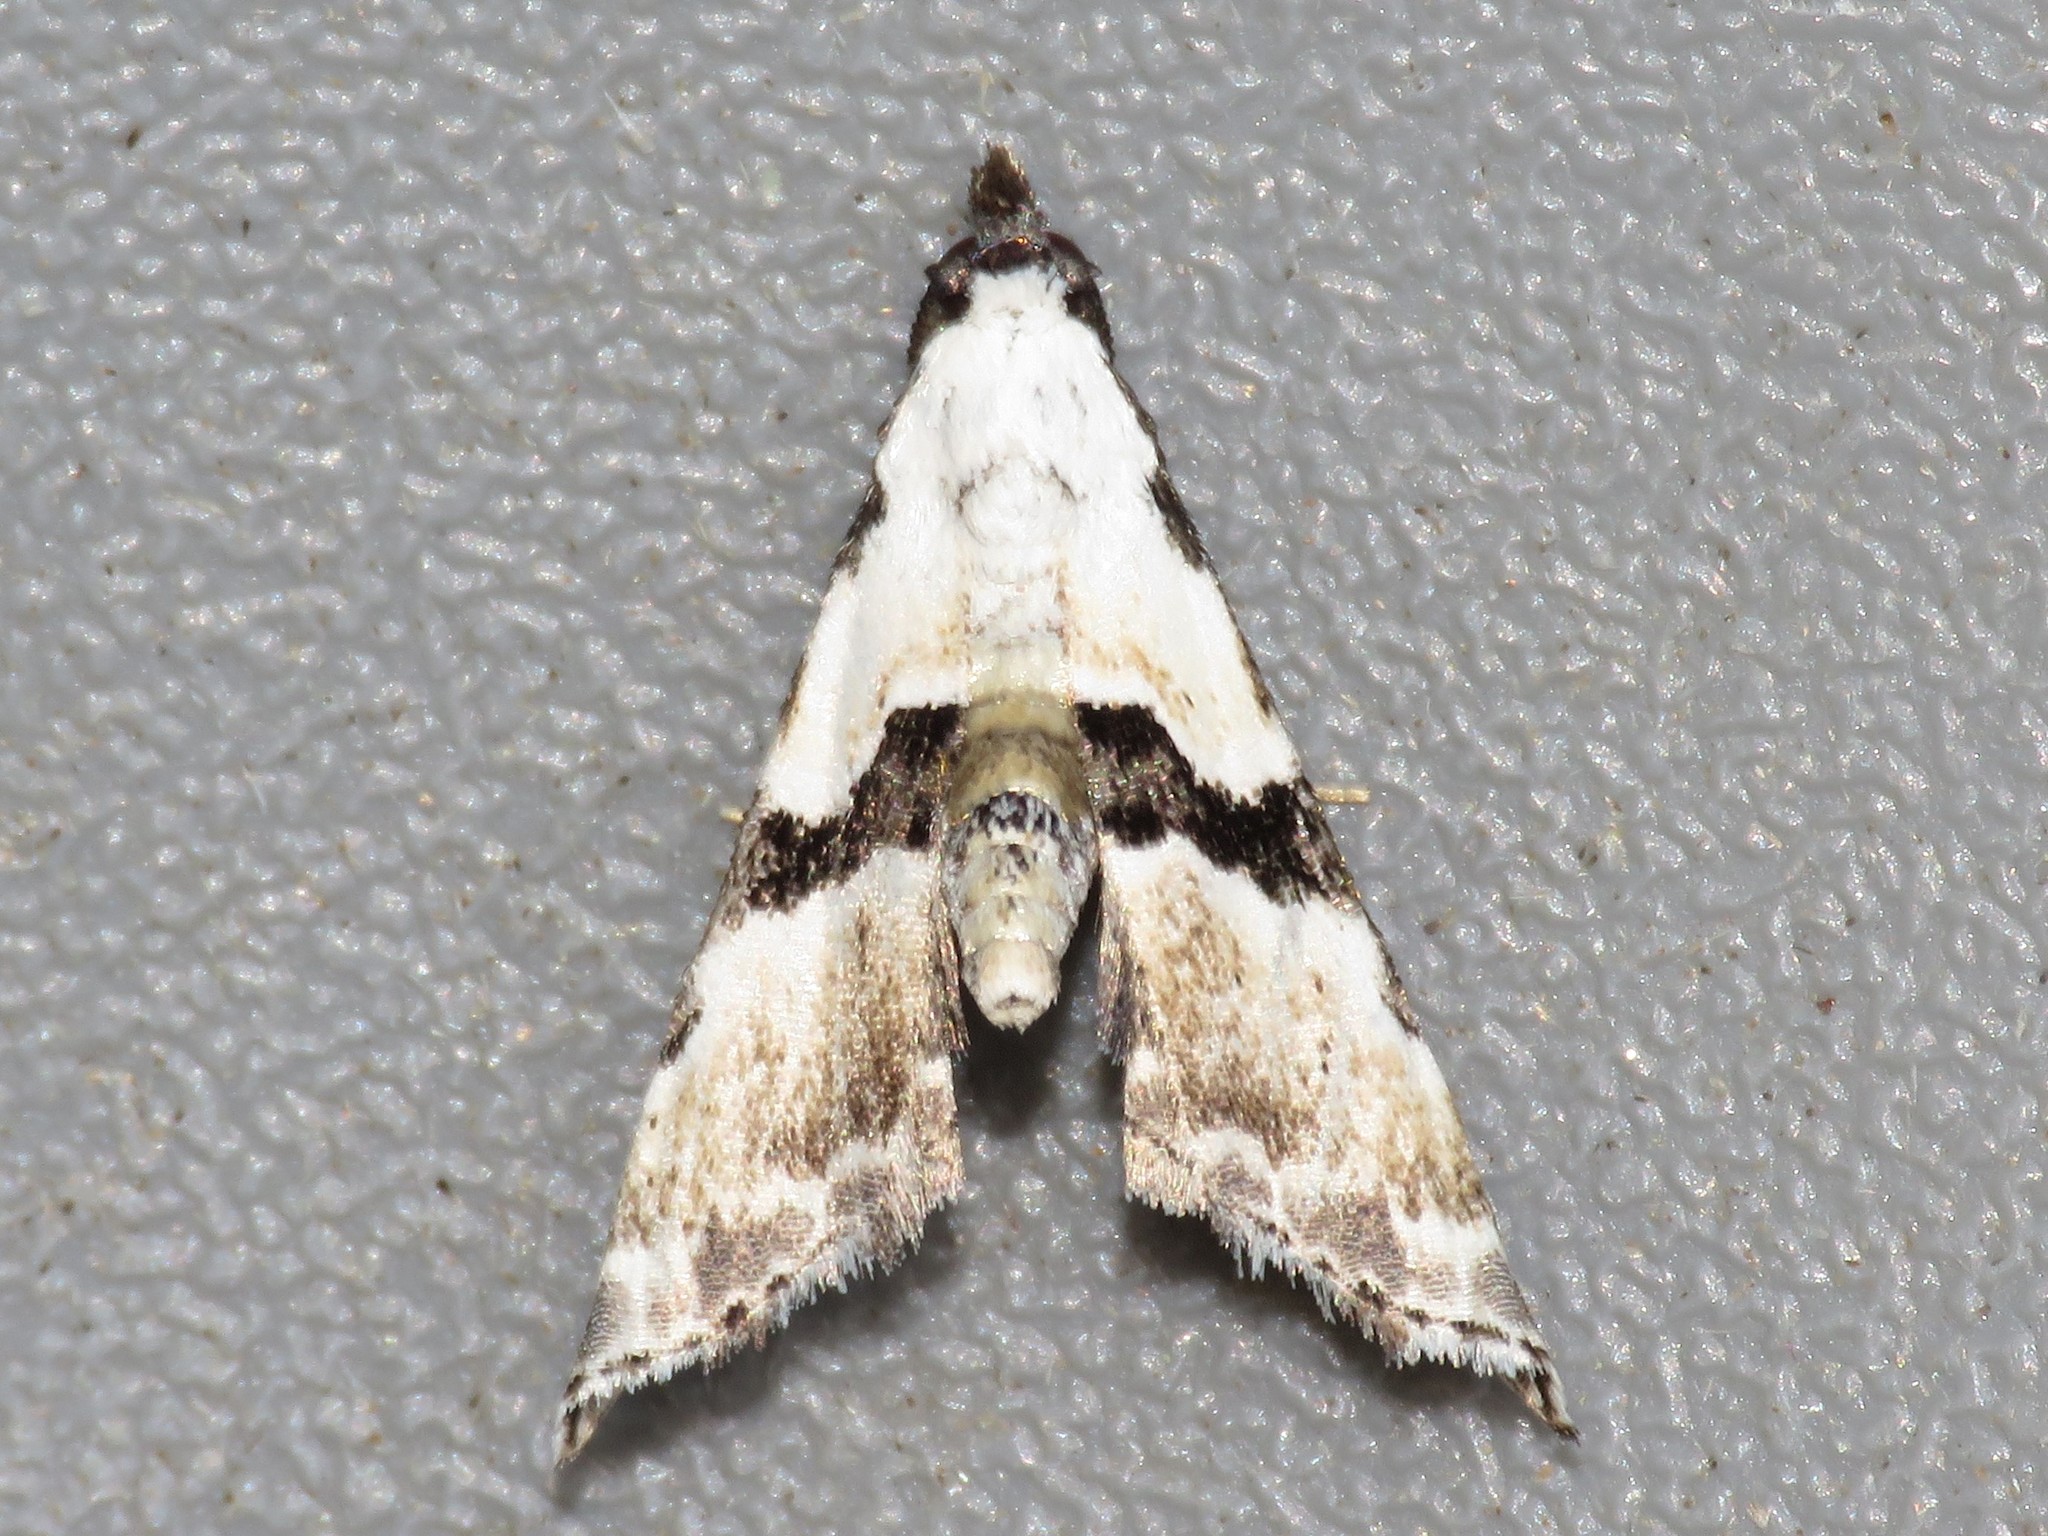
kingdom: Animalia
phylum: Arthropoda
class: Insecta
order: Lepidoptera
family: Noctuidae
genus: Nigetia
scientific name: Nigetia formosalis
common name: Thin-winged owlet
